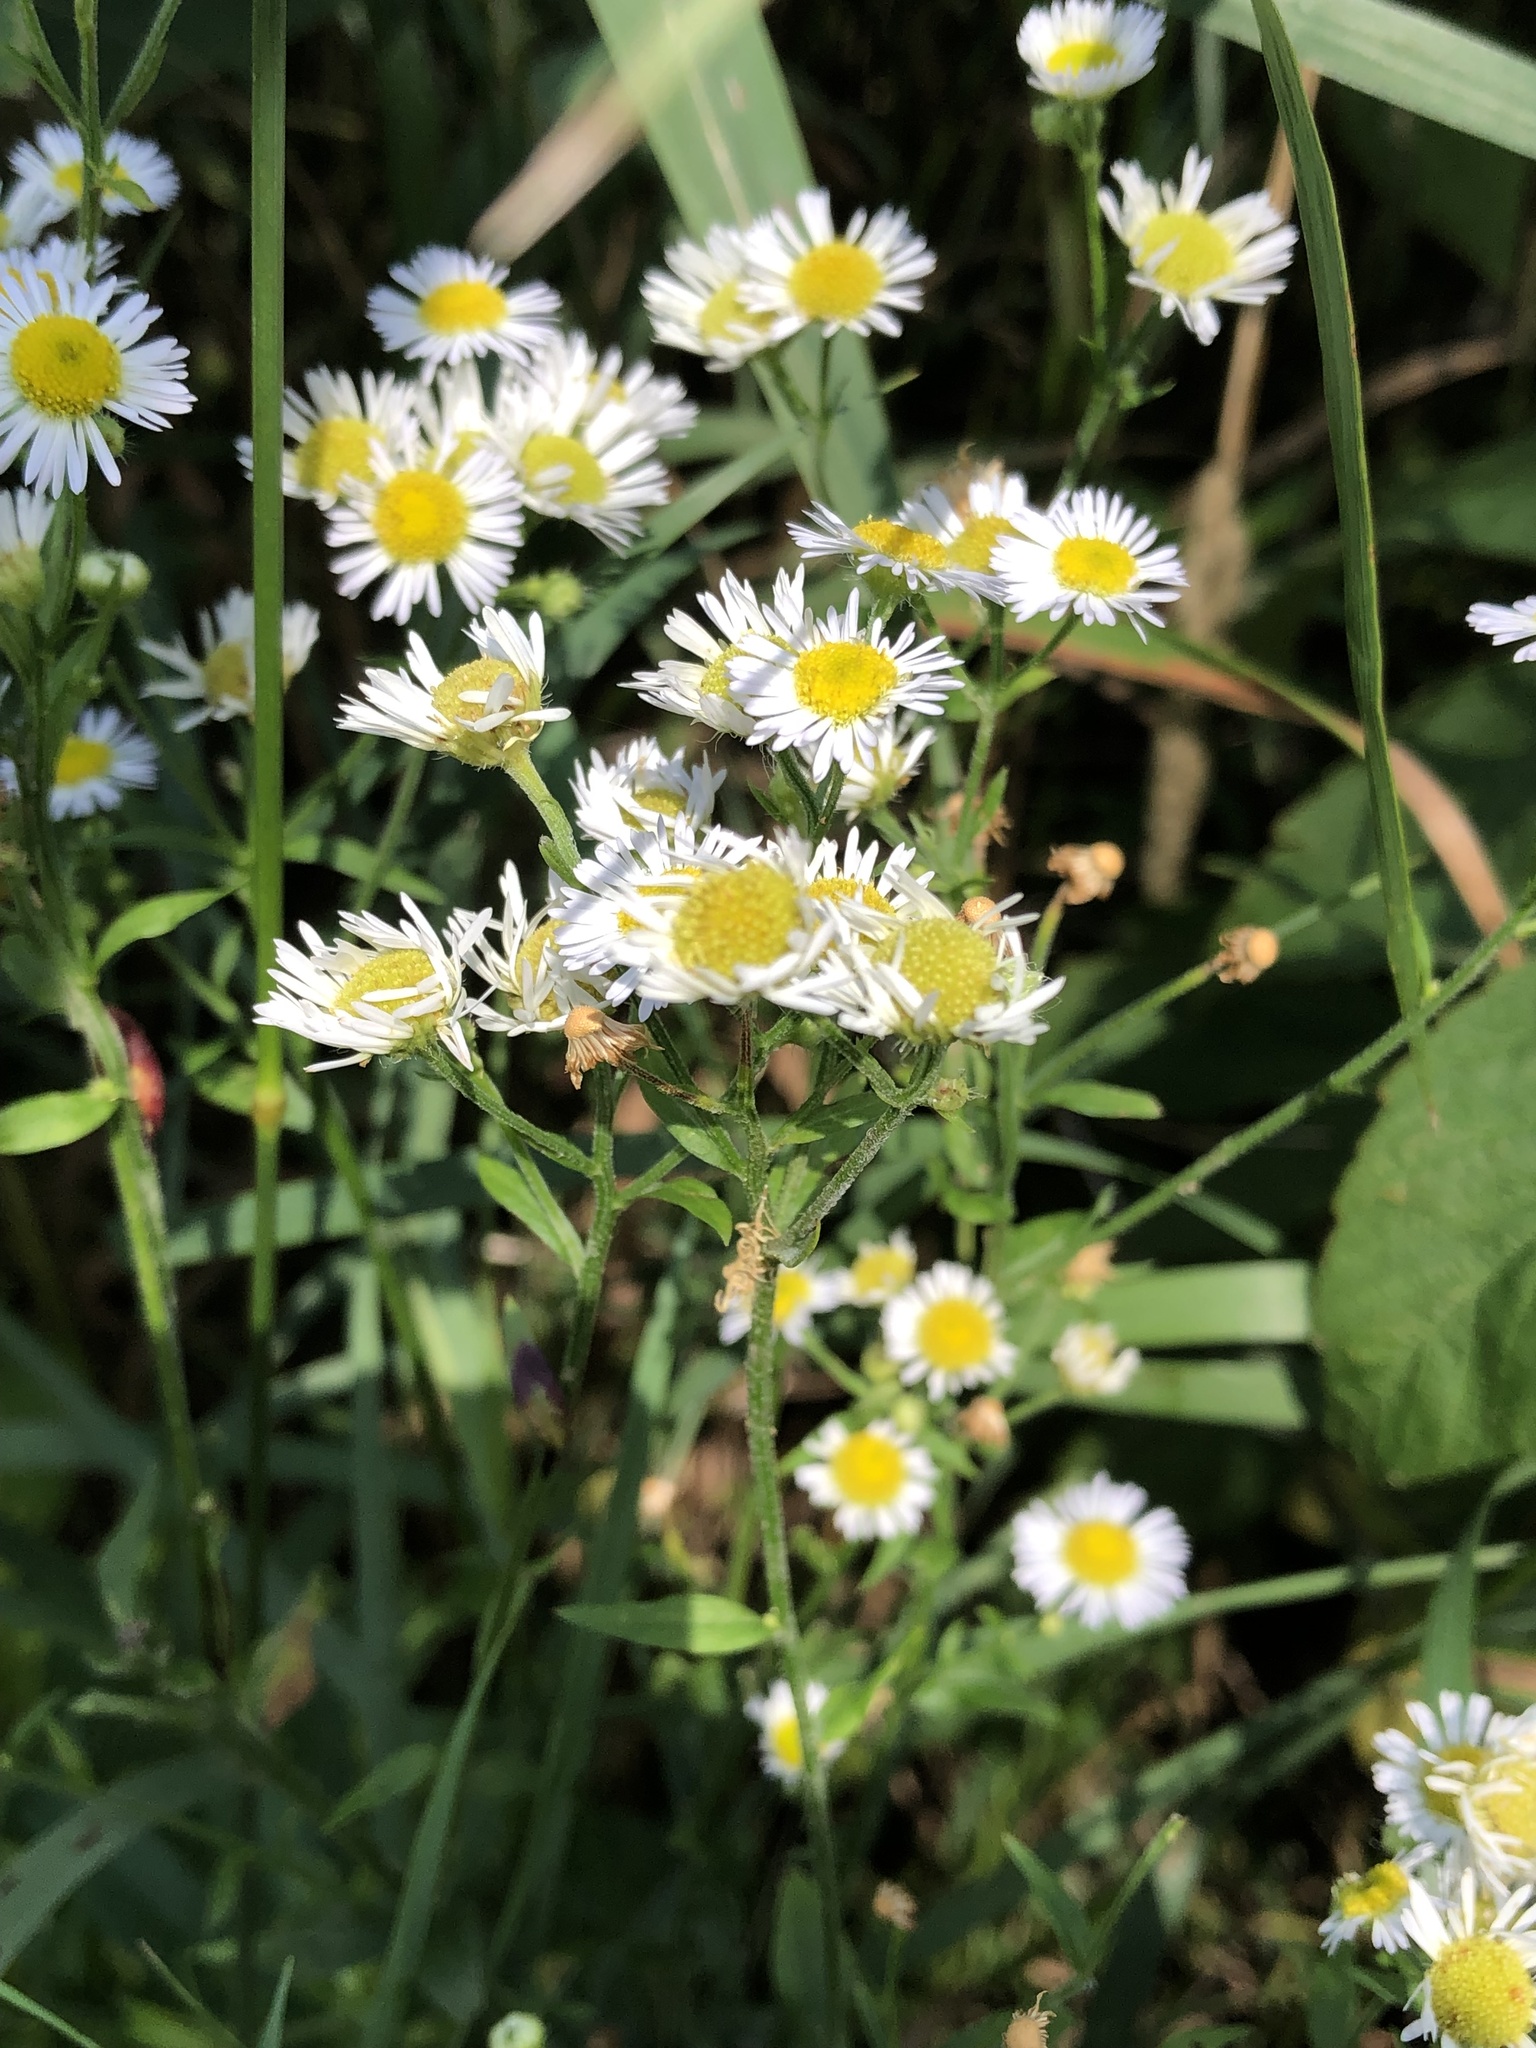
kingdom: Plantae
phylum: Tracheophyta
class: Magnoliopsida
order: Asterales
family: Asteraceae
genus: Erigeron
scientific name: Erigeron strigosus
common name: Common eastern fleabane
